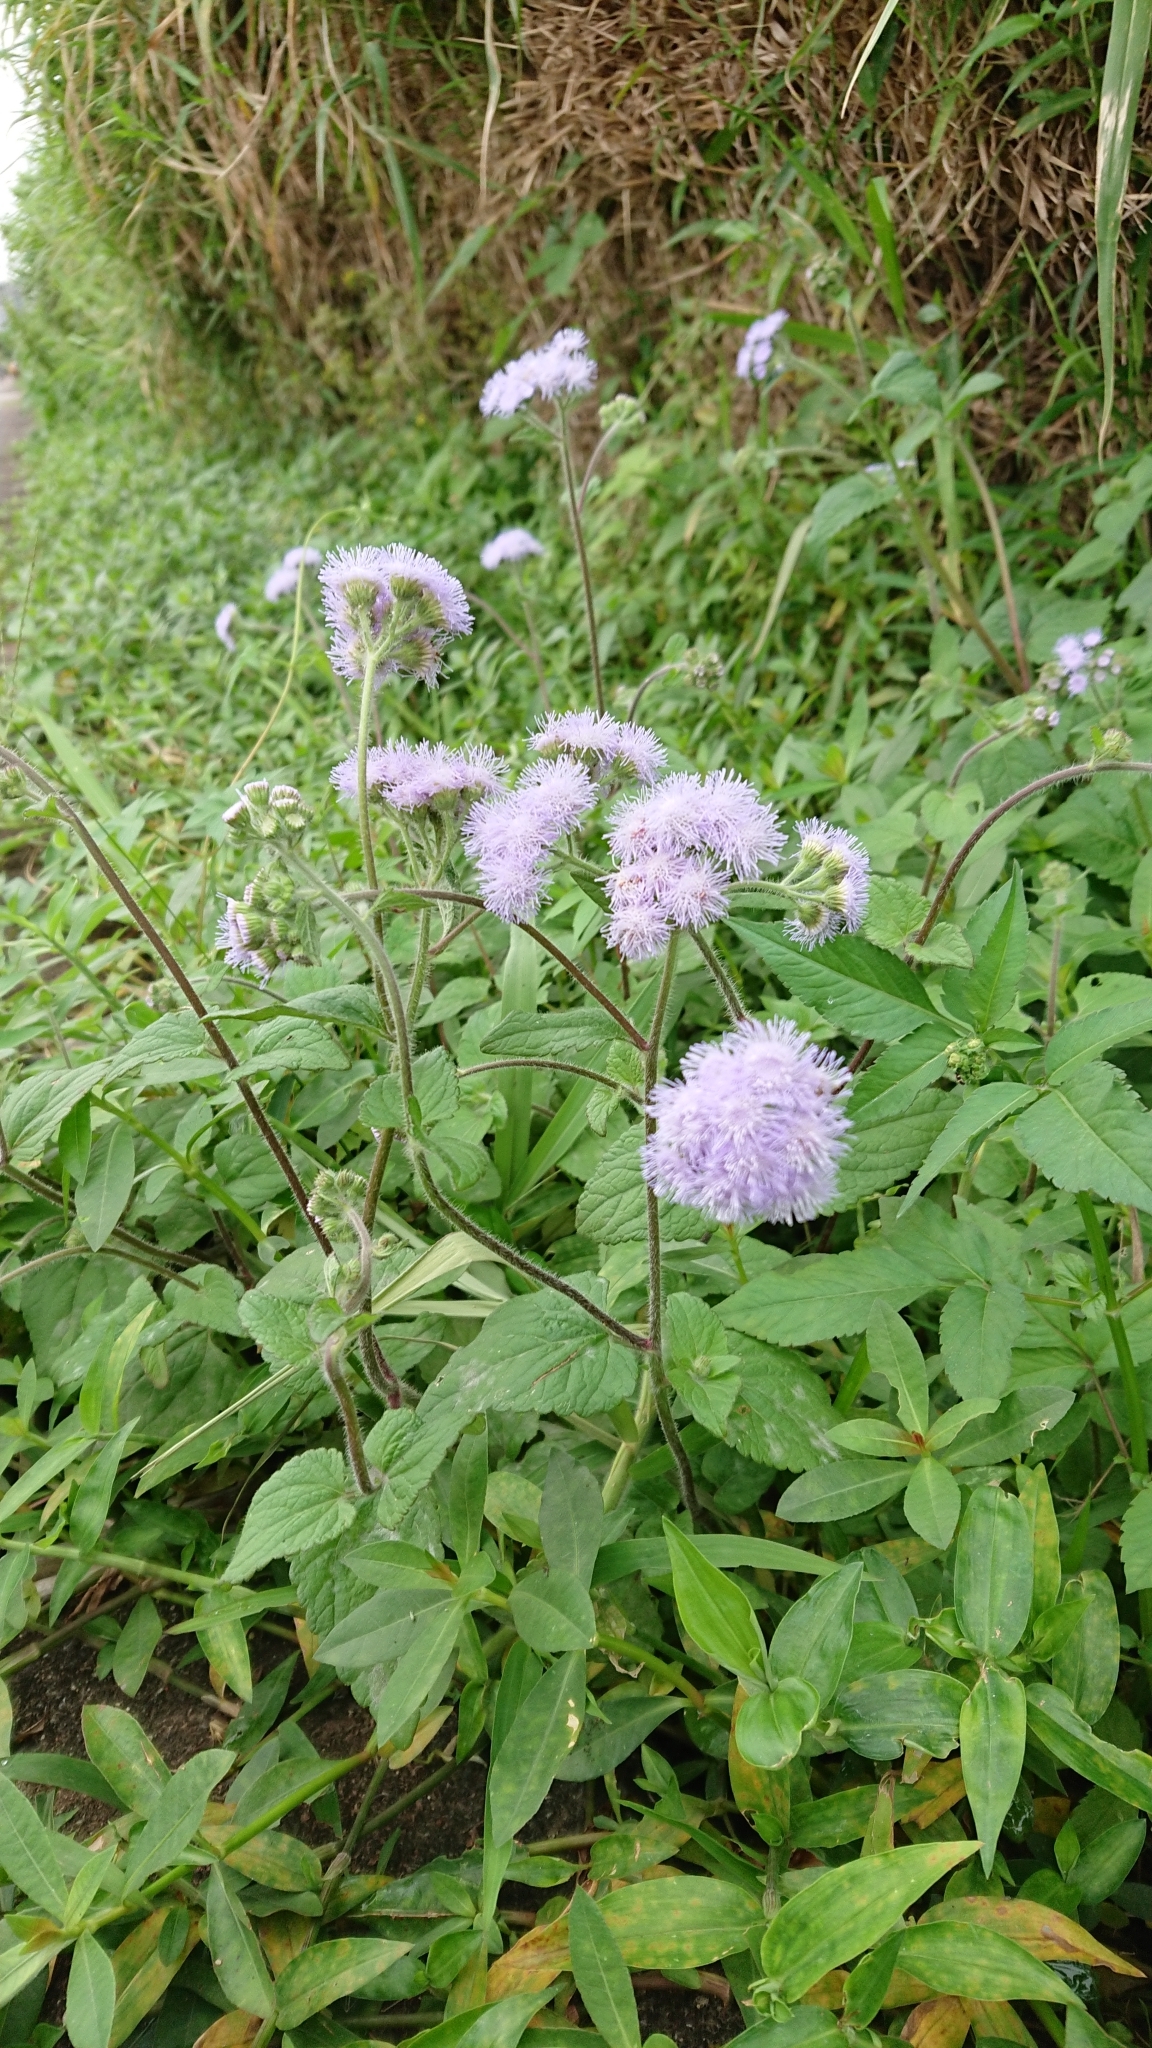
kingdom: Plantae
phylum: Tracheophyta
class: Magnoliopsida
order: Asterales
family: Asteraceae
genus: Ageratum
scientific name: Ageratum houstonianum
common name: Bluemink
